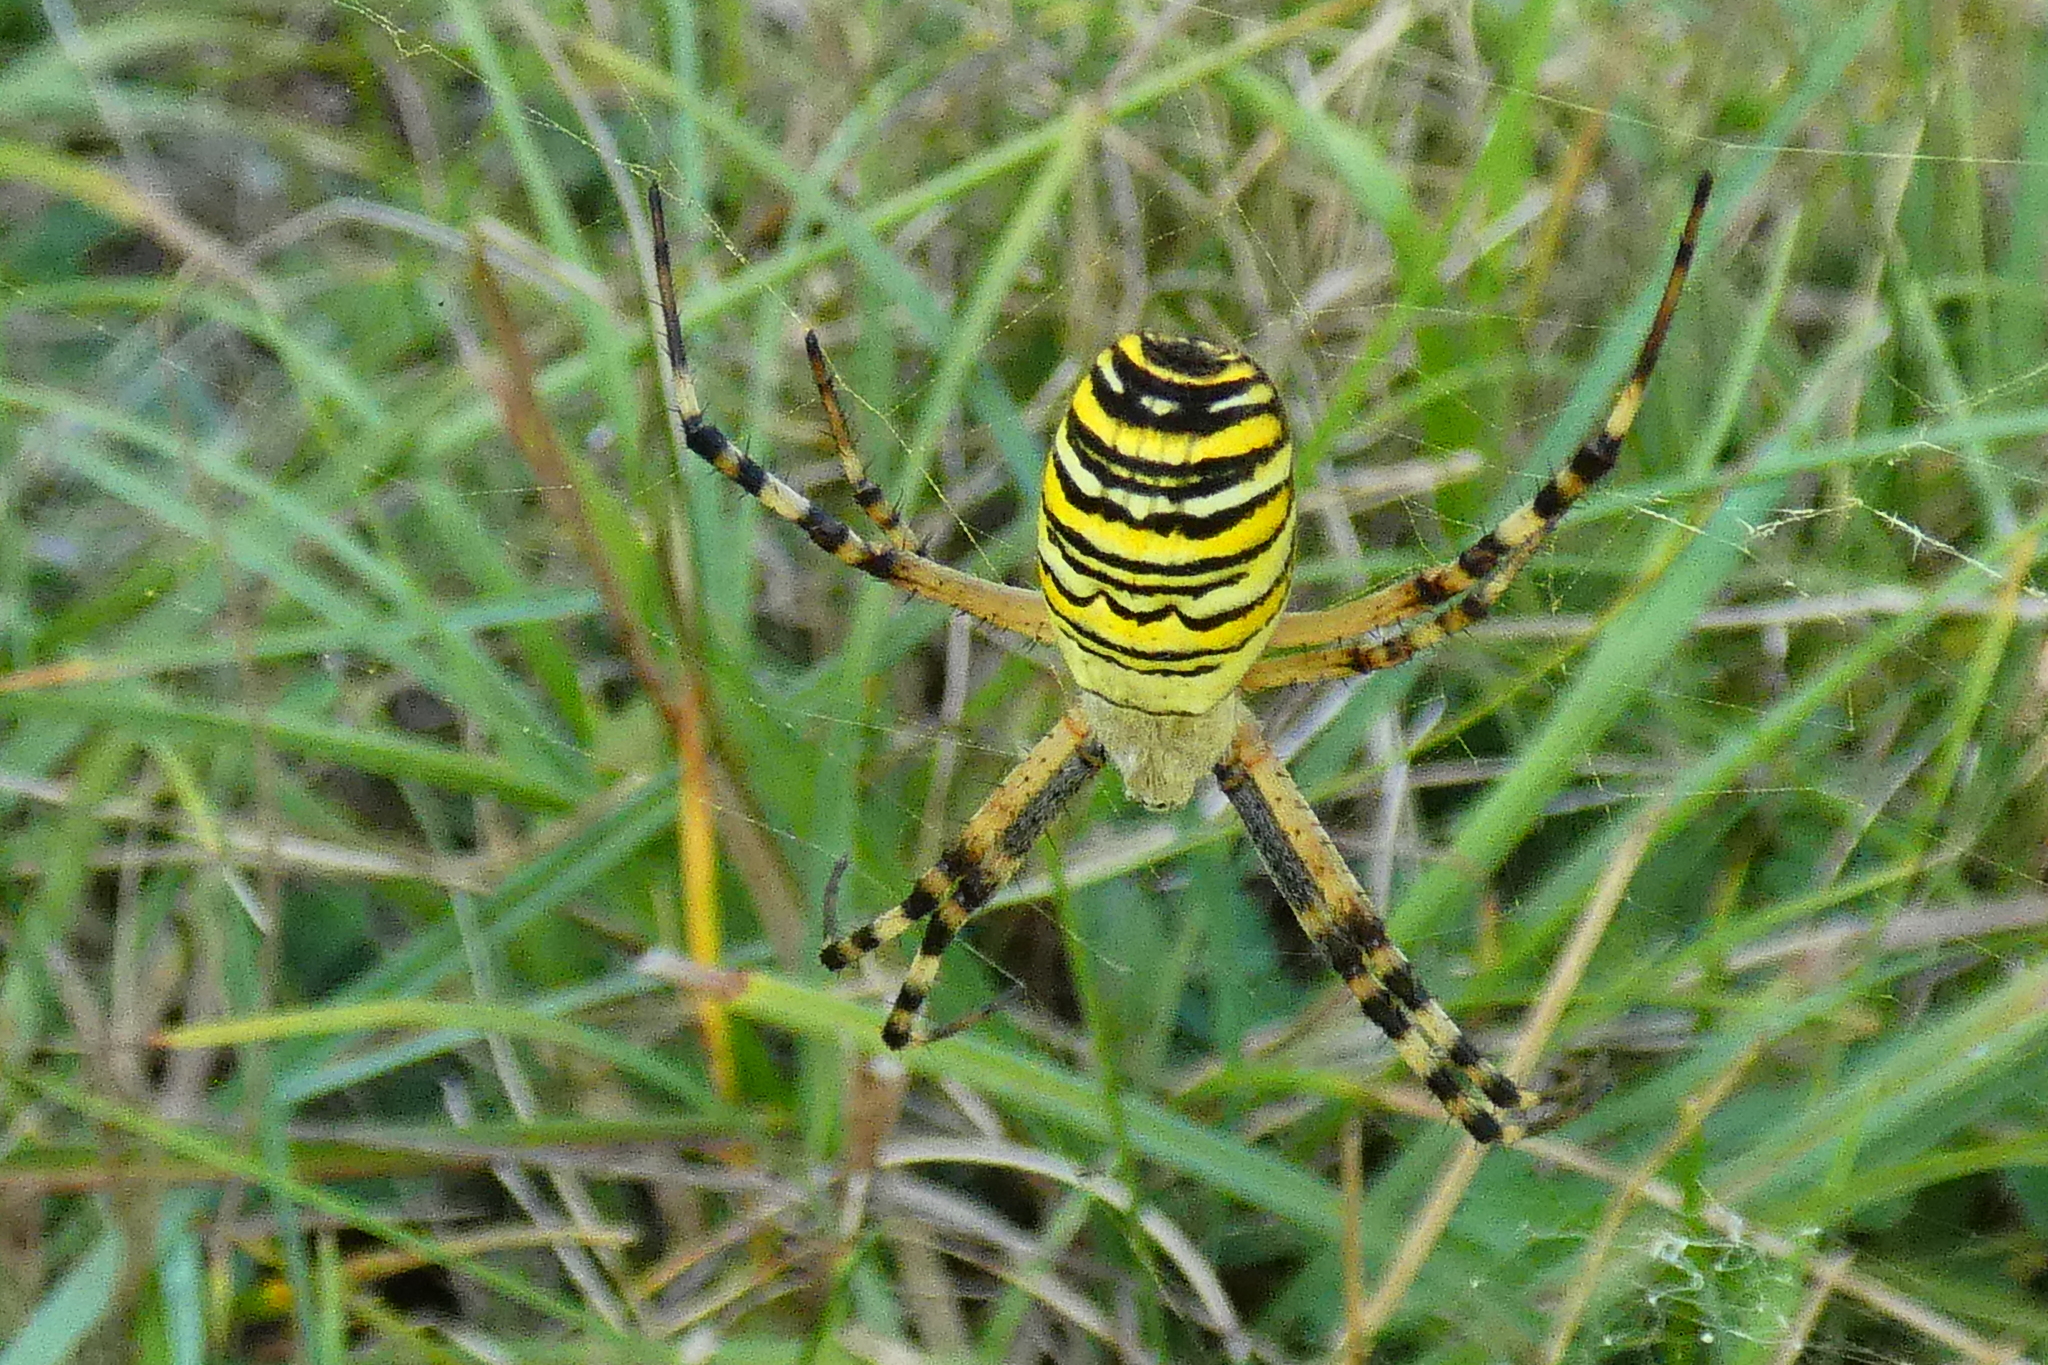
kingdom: Animalia
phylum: Arthropoda
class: Arachnida
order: Araneae
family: Araneidae
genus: Argiope
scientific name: Argiope bruennichi
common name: Wasp spider
